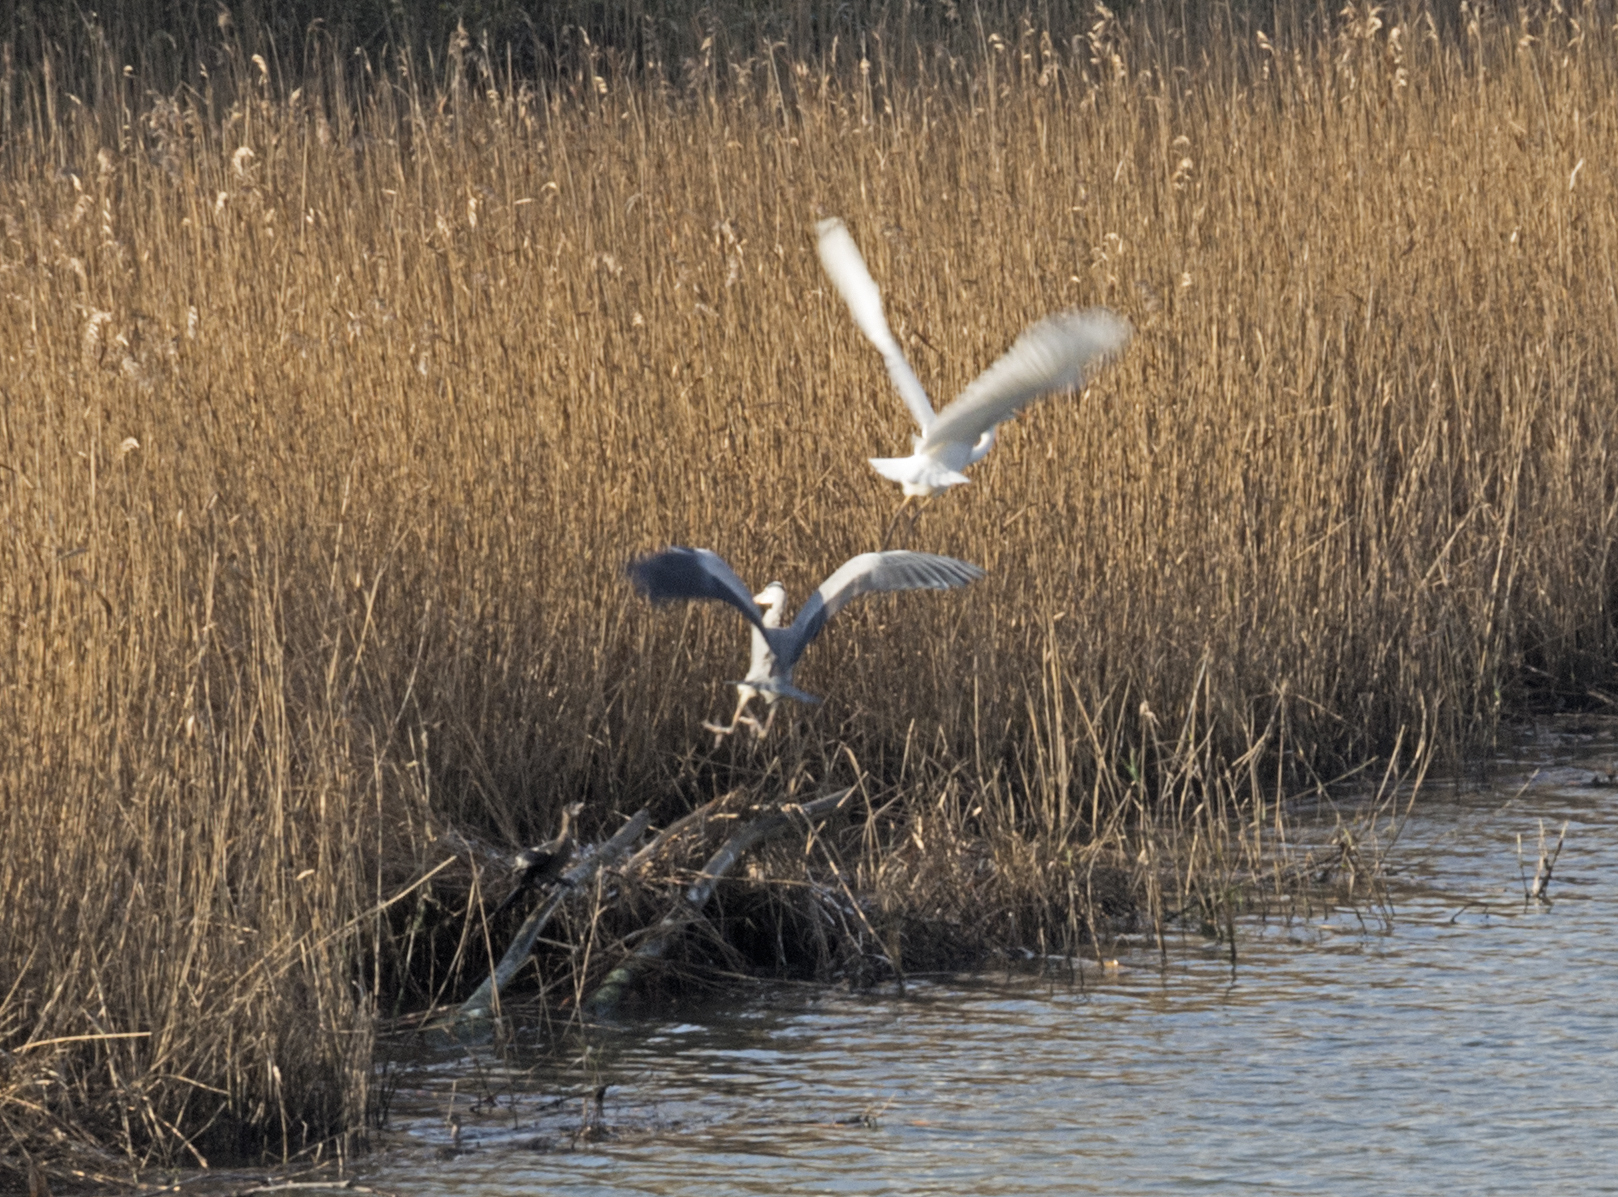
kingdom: Animalia
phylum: Chordata
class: Aves
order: Pelecaniformes
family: Ardeidae
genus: Ardea
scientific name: Ardea cinerea
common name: Grey heron
